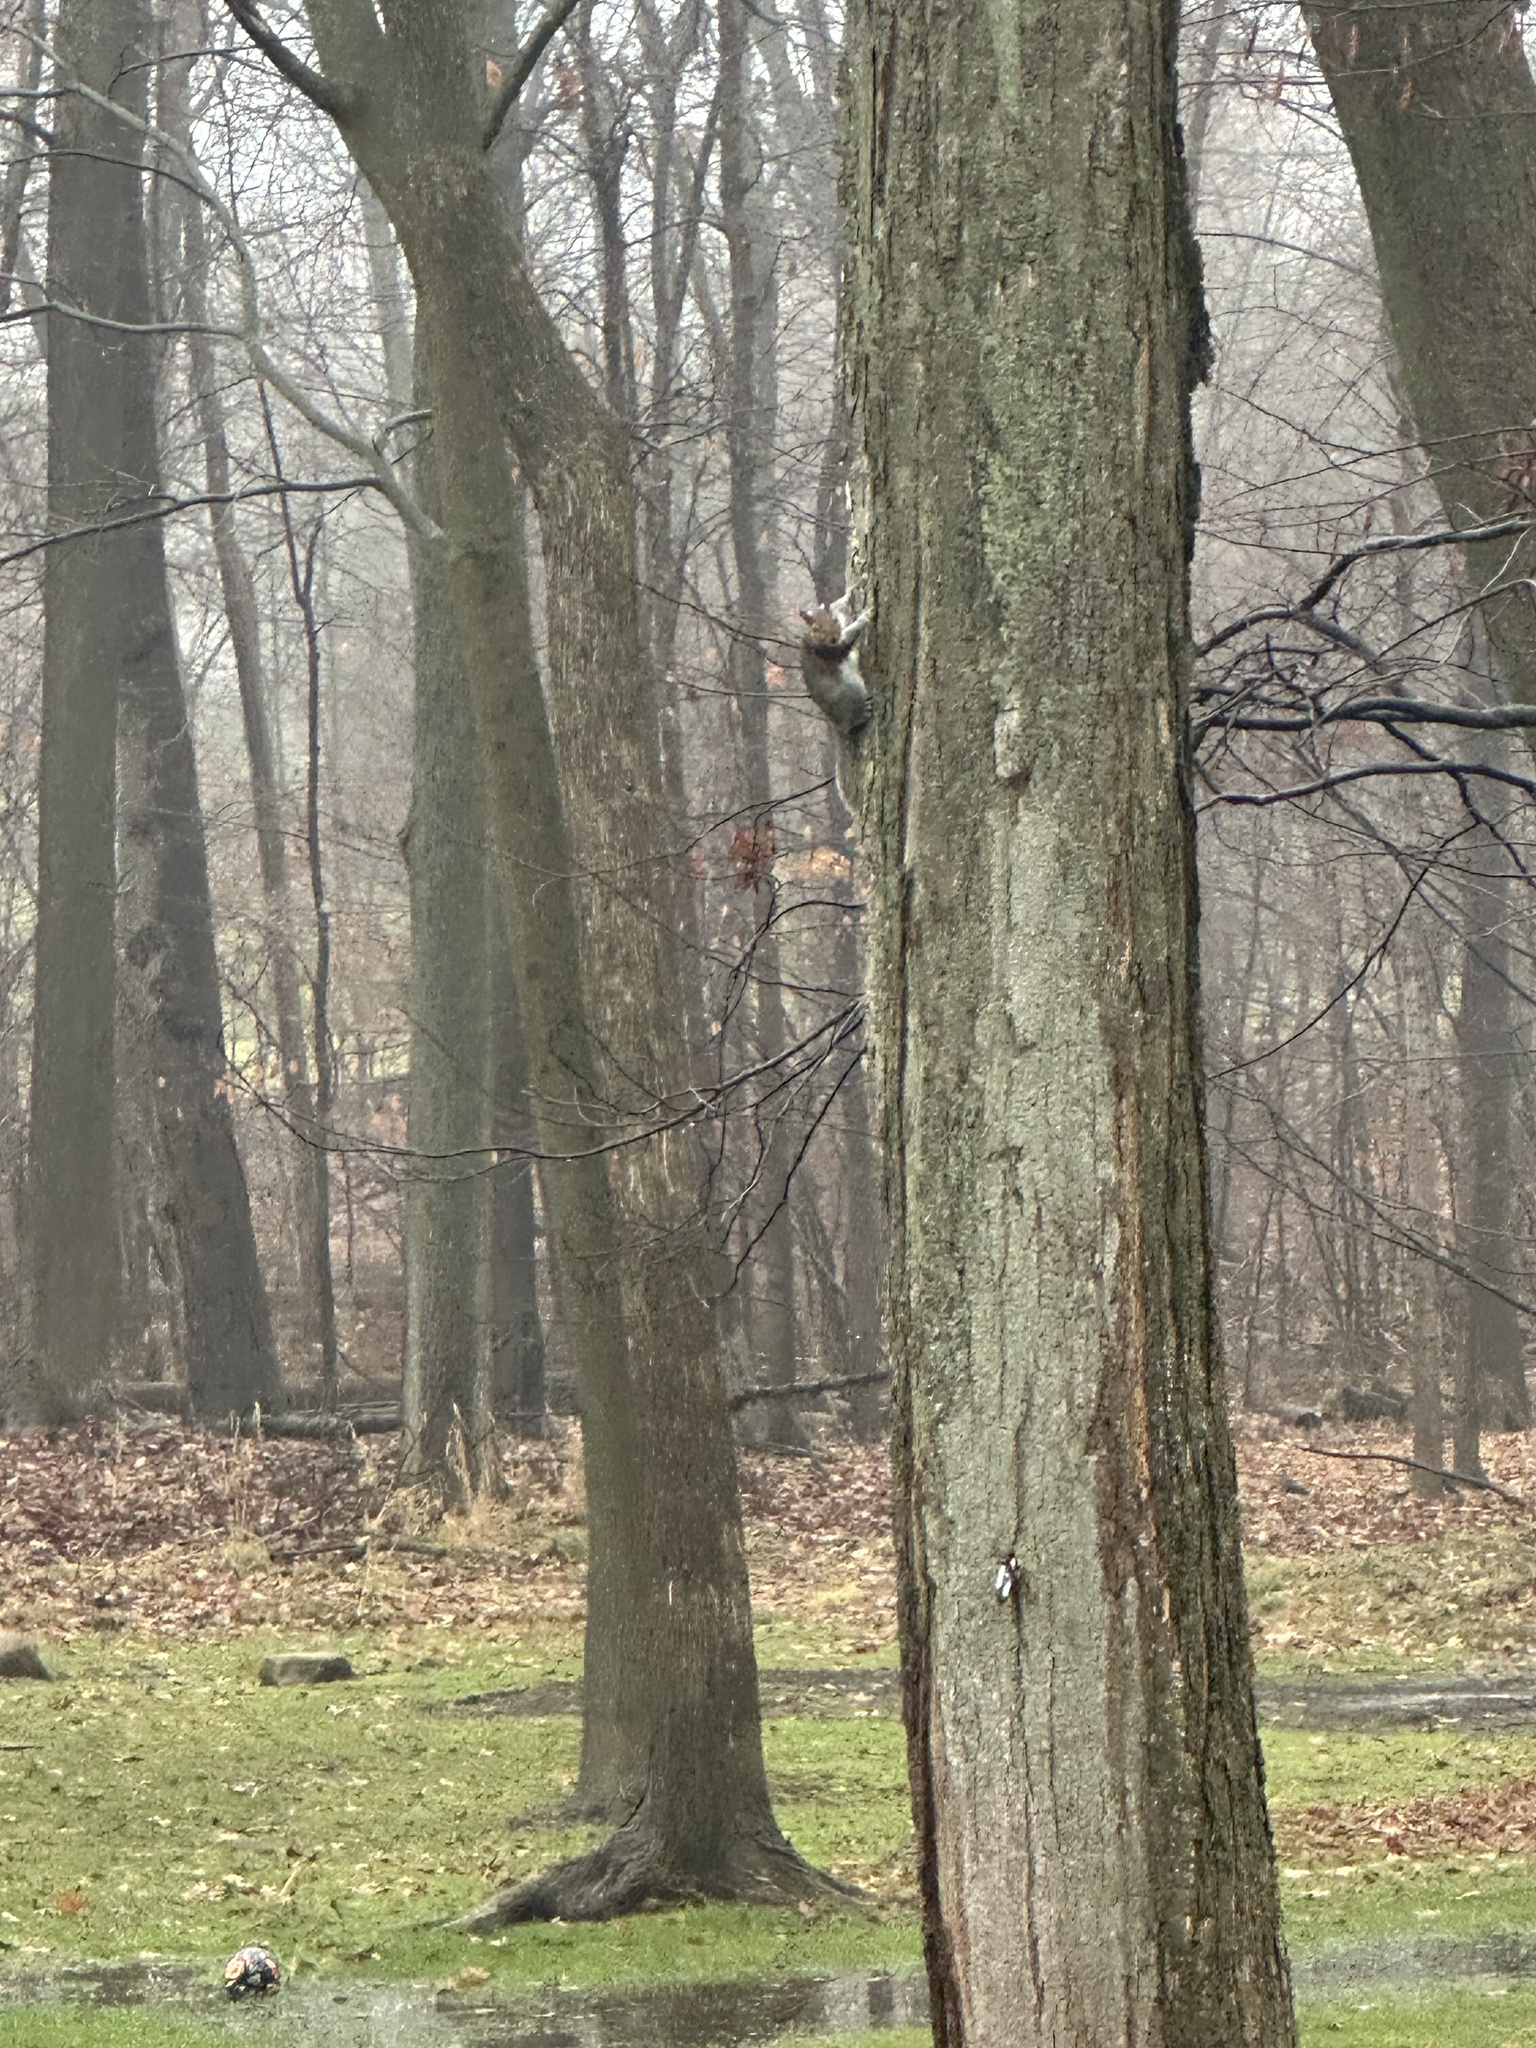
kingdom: Animalia
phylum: Chordata
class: Mammalia
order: Rodentia
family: Sciuridae
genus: Sciurus
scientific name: Sciurus carolinensis
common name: Eastern gray squirrel
